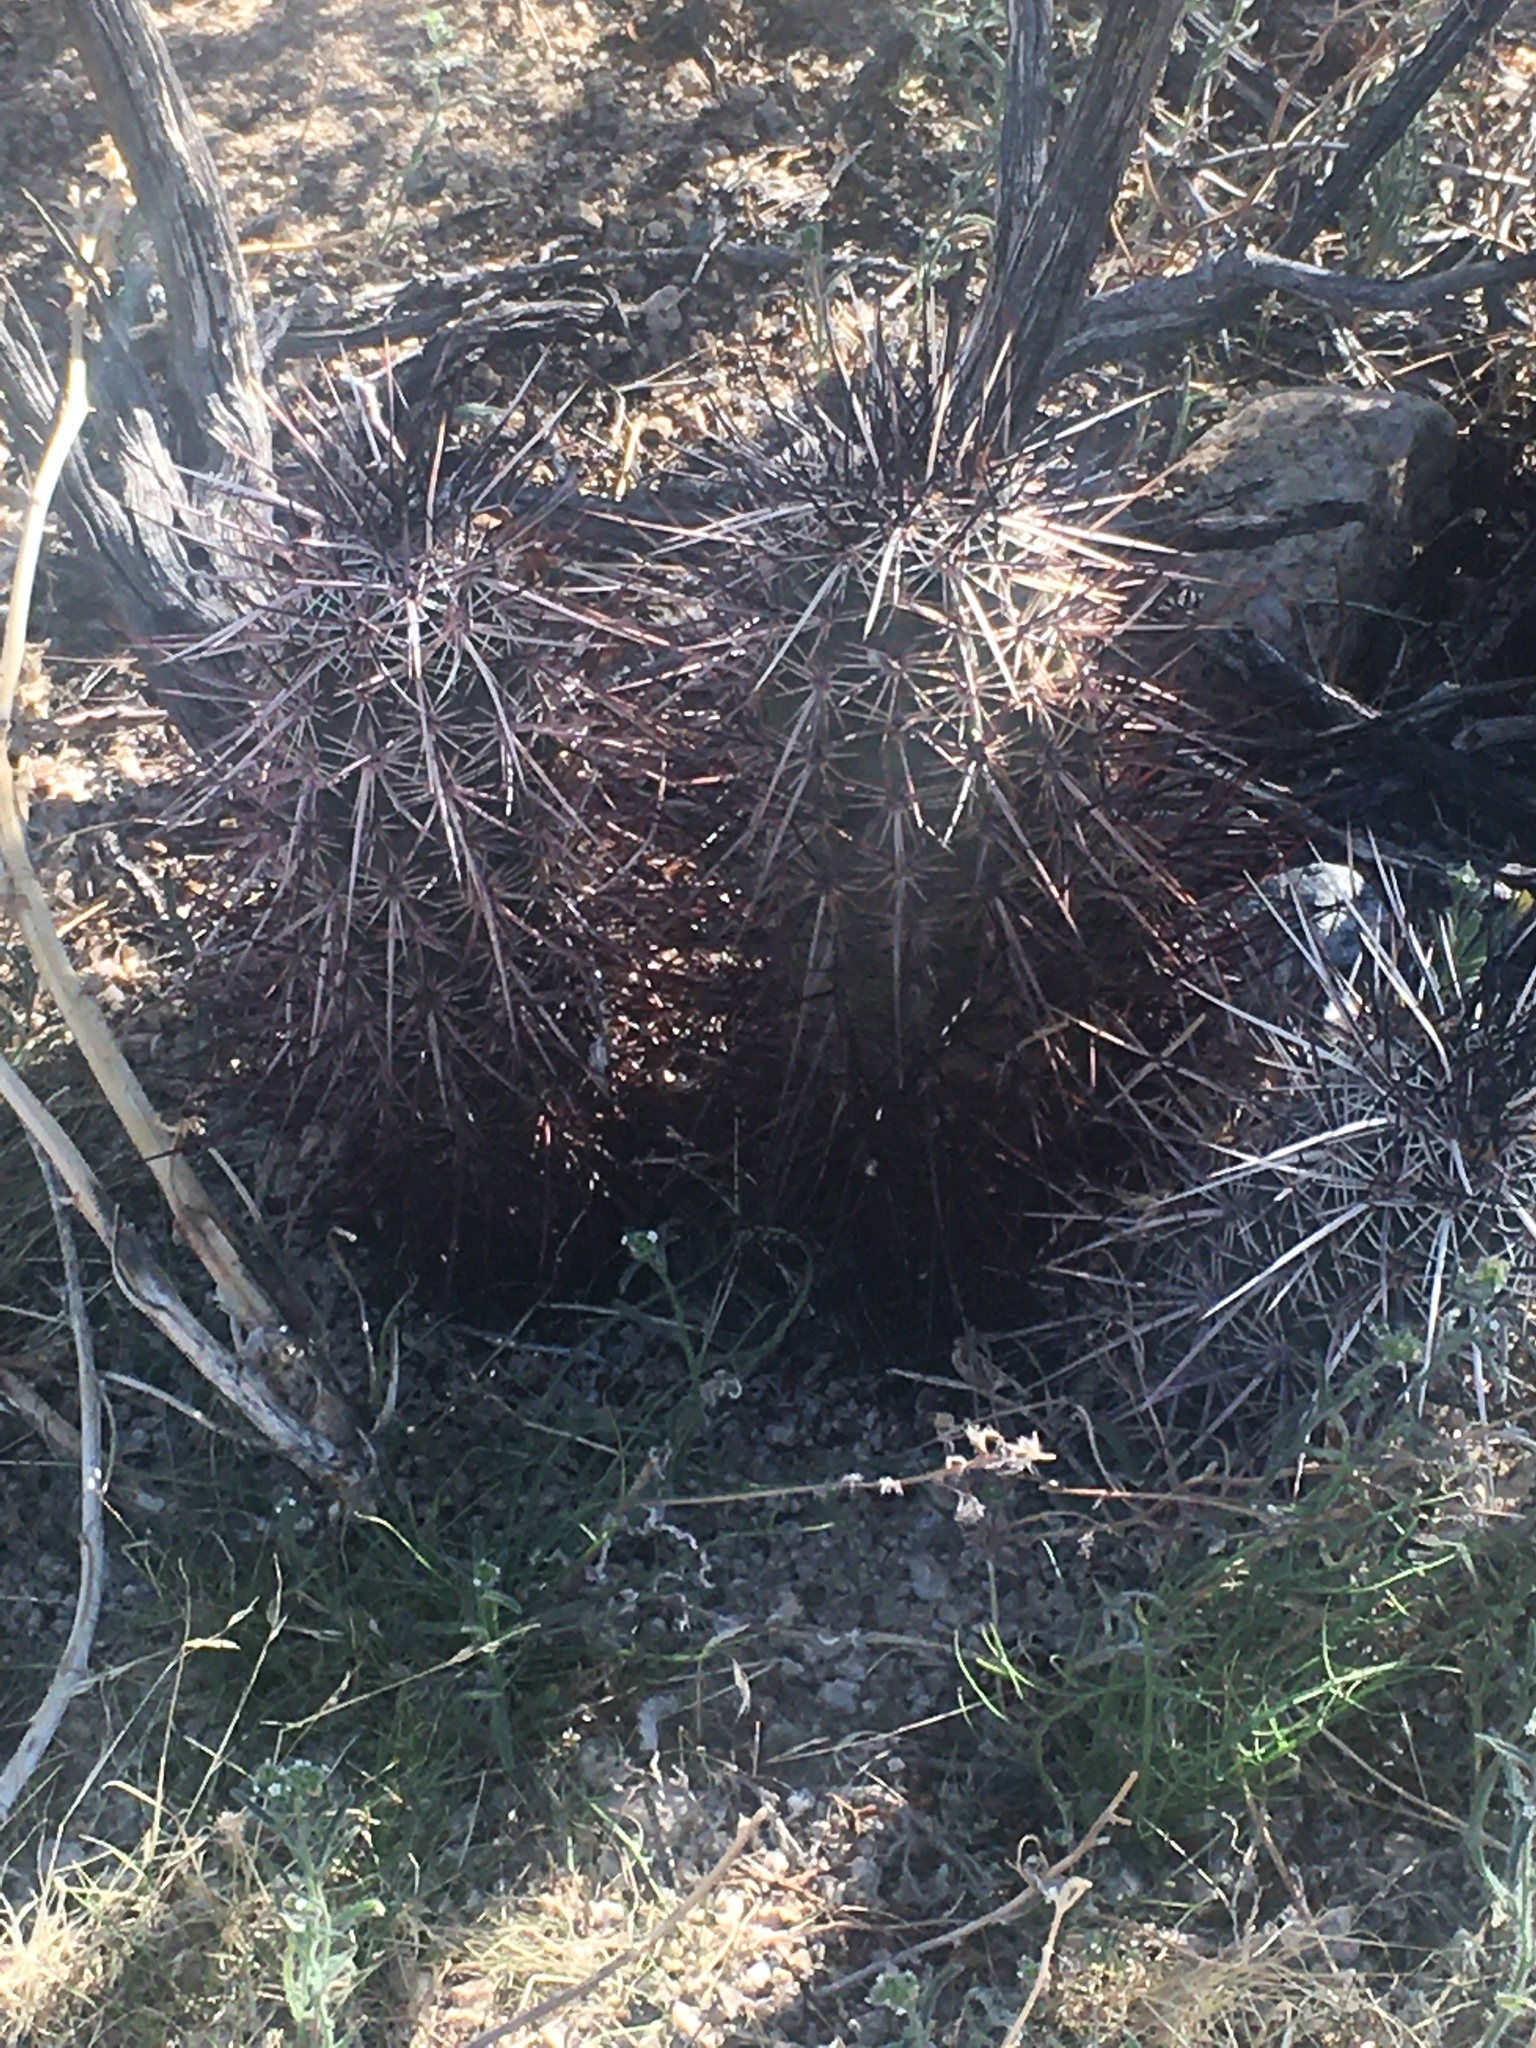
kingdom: Plantae
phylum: Tracheophyta
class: Magnoliopsida
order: Caryophyllales
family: Cactaceae
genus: Echinocereus
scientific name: Echinocereus engelmannii
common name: Engelmann's hedgehog cactus
